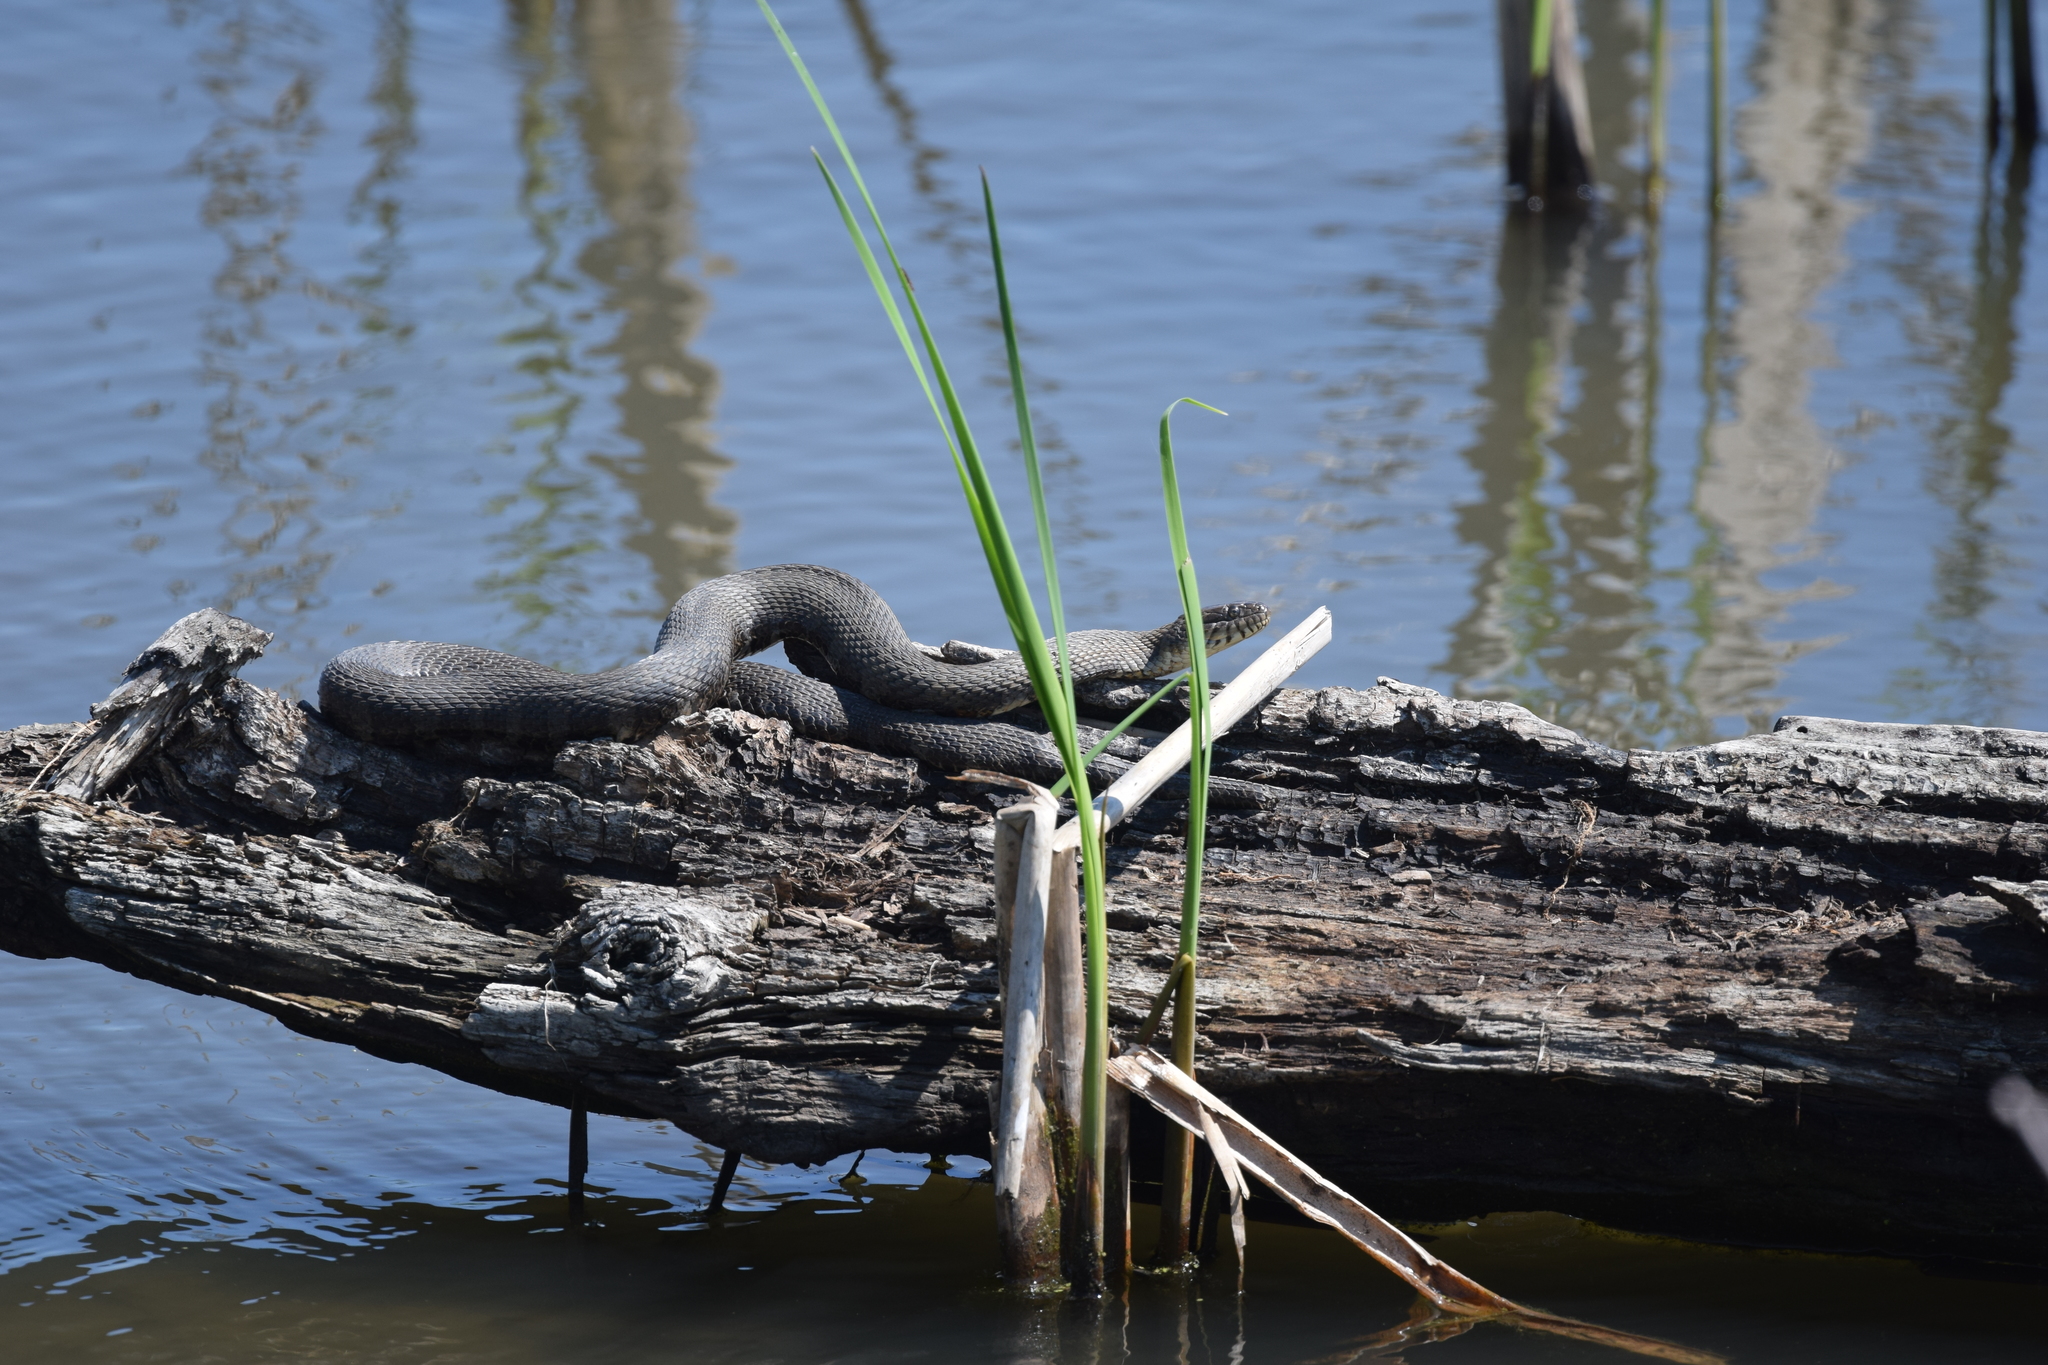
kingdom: Animalia
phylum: Chordata
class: Squamata
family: Colubridae
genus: Nerodia
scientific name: Nerodia sipedon
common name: Northern water snake
